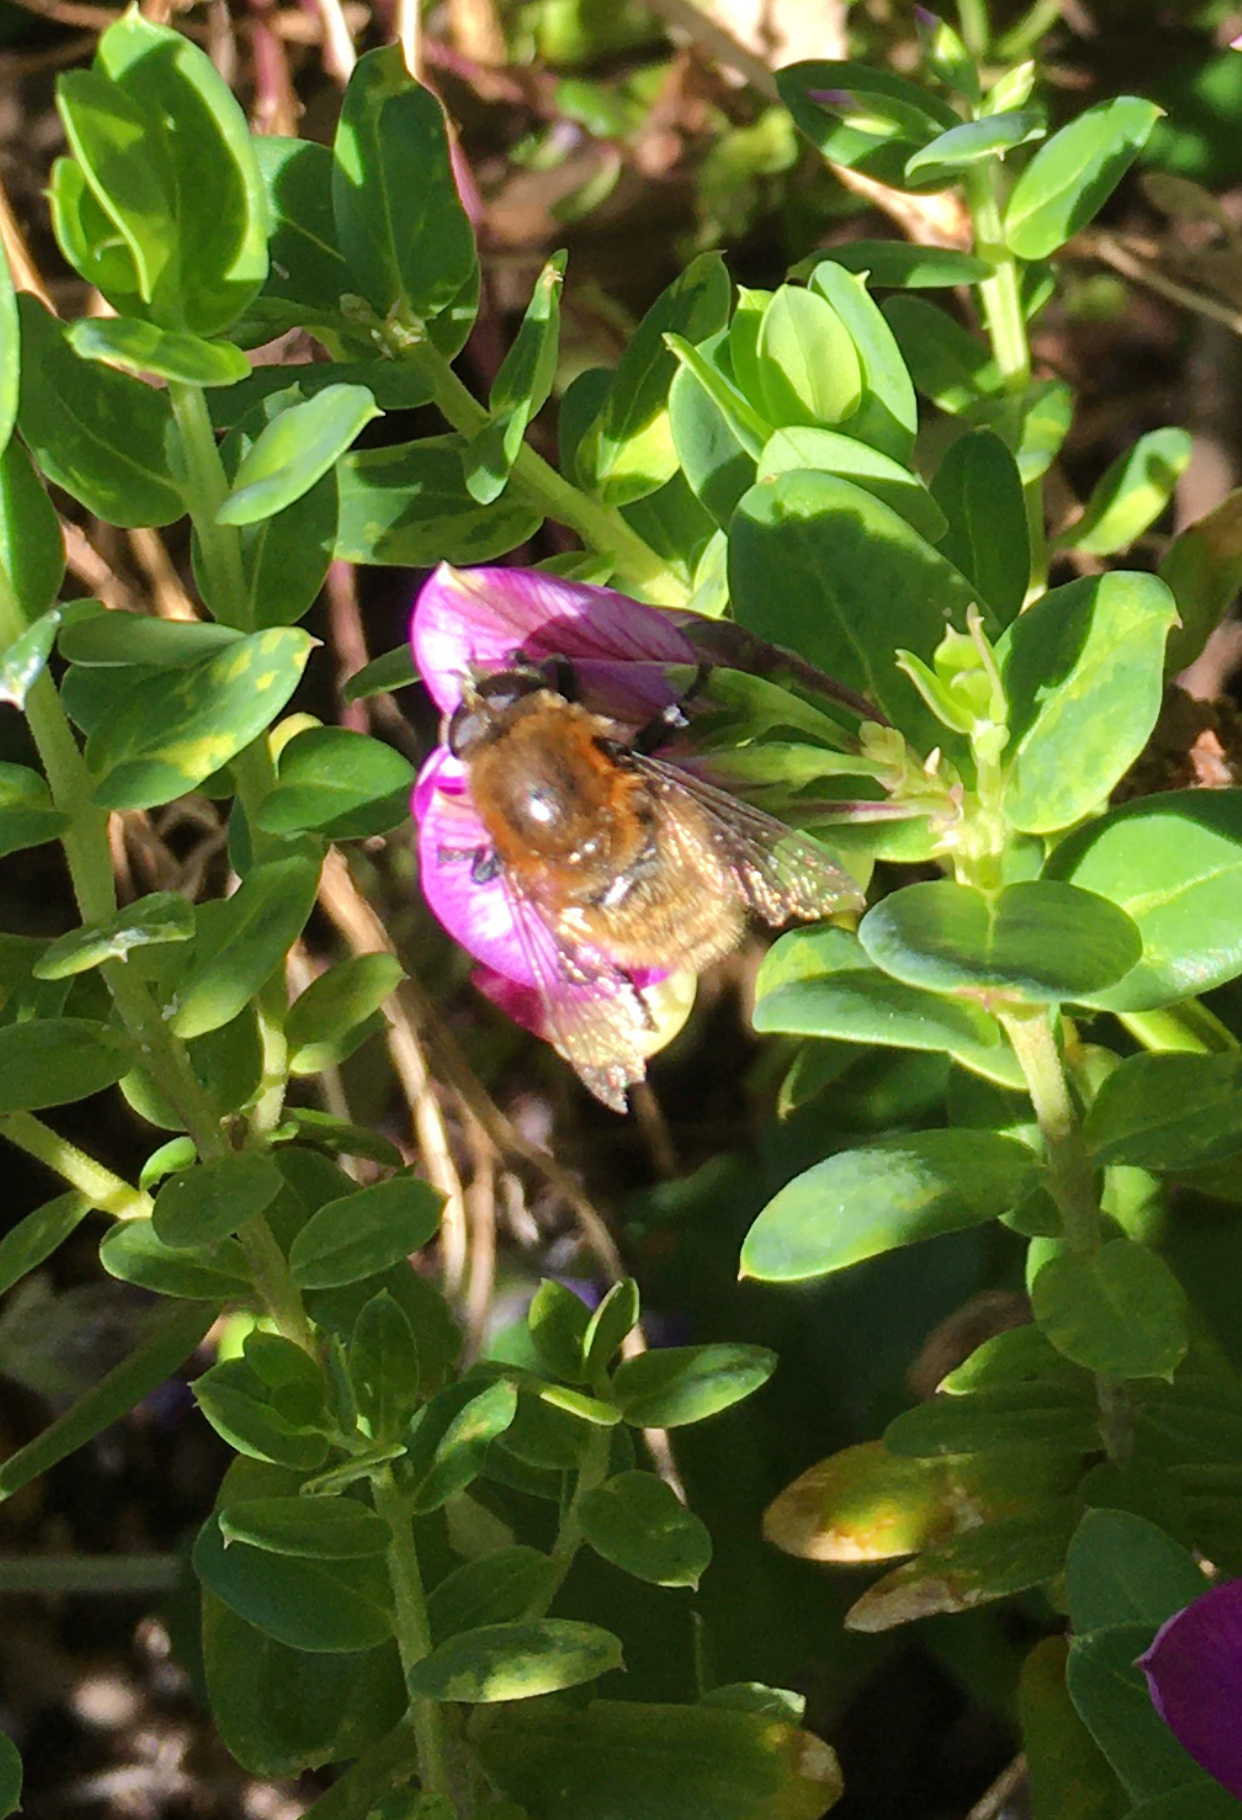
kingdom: Animalia
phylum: Arthropoda
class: Insecta
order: Diptera
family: Syrphidae
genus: Merodon
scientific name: Merodon equestris
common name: Greater bulb-fly
